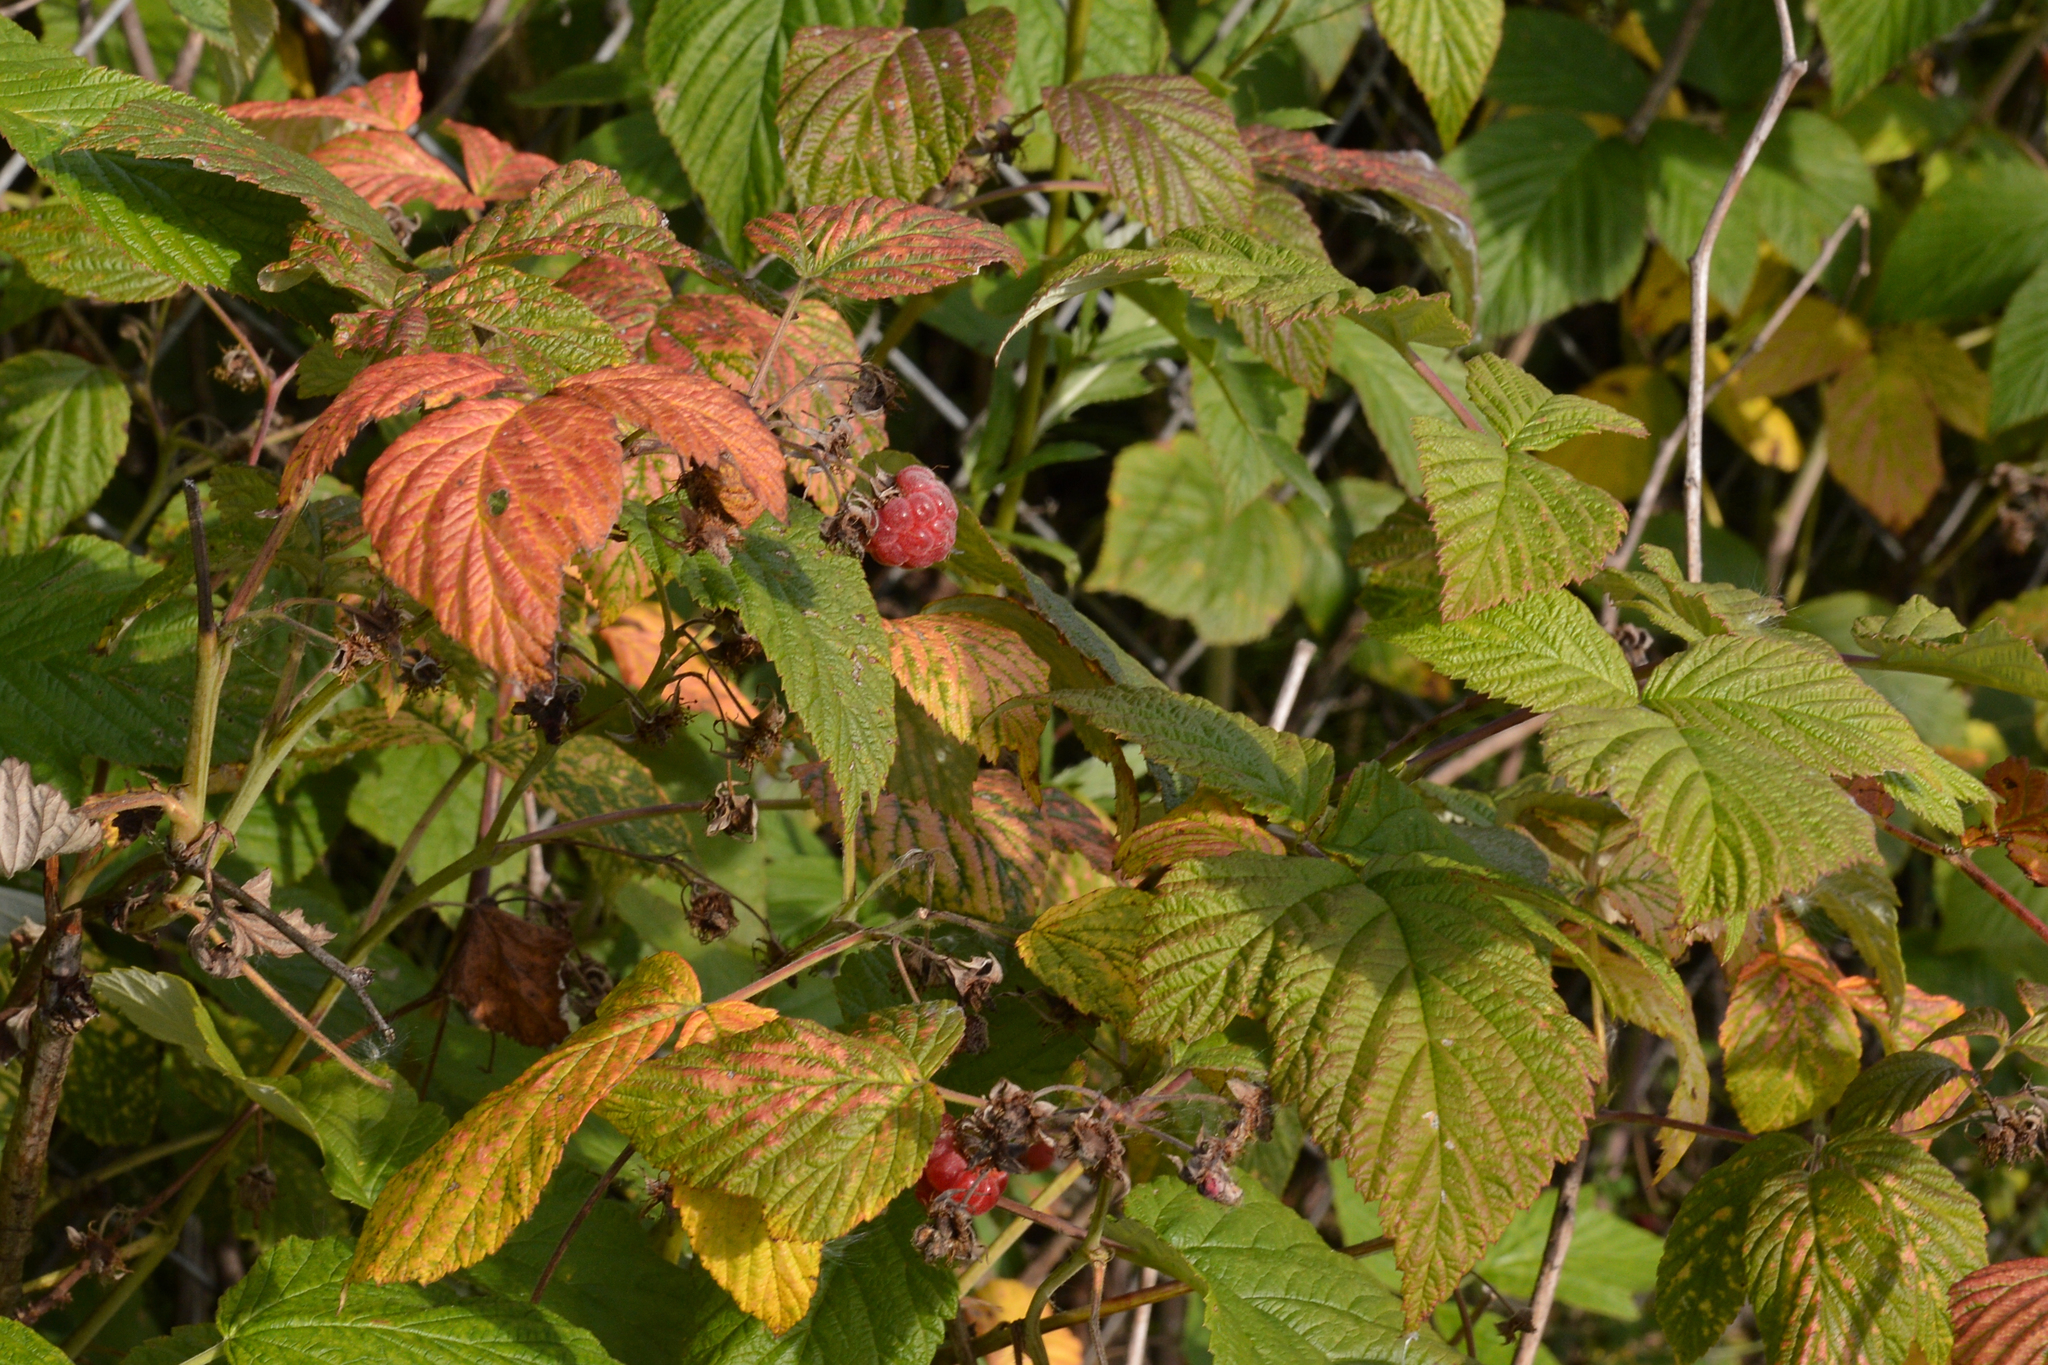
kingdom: Plantae
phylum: Tracheophyta
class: Magnoliopsida
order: Rosales
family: Rosaceae
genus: Rubus
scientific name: Rubus idaeus
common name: Raspberry
